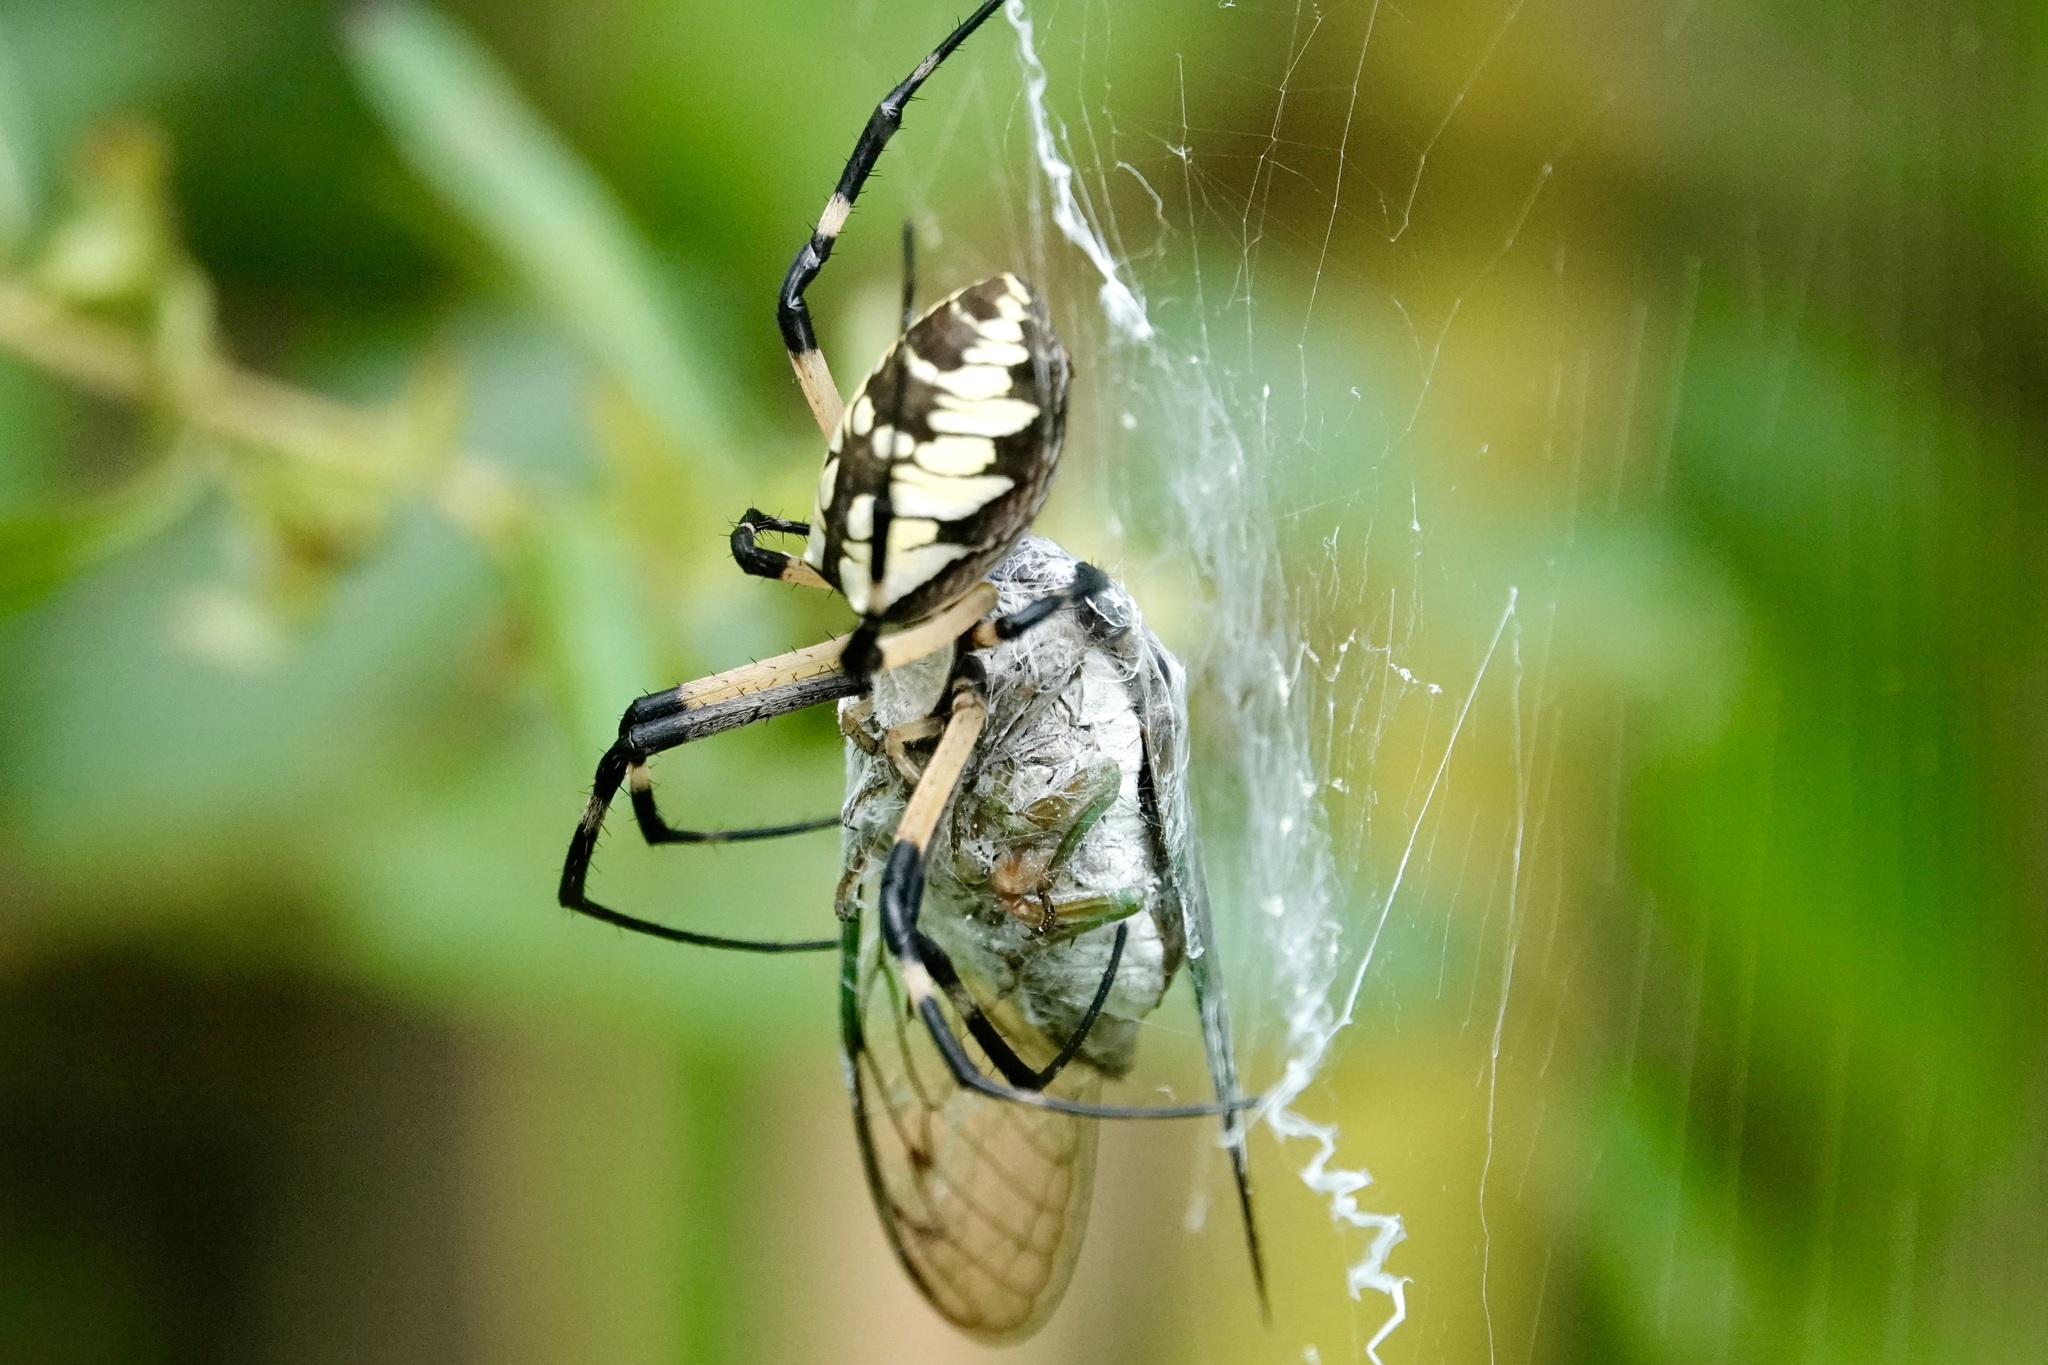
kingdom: Animalia
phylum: Arthropoda
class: Arachnida
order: Araneae
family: Araneidae
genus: Argiope
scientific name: Argiope aurantia
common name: Orb weavers
